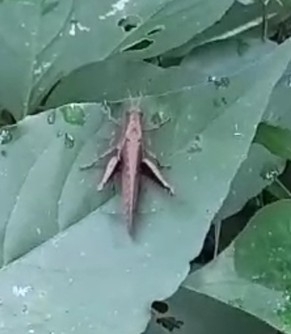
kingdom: Animalia
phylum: Arthropoda
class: Insecta
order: Orthoptera
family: Acrididae
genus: Abracris
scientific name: Abracris flavolineata
